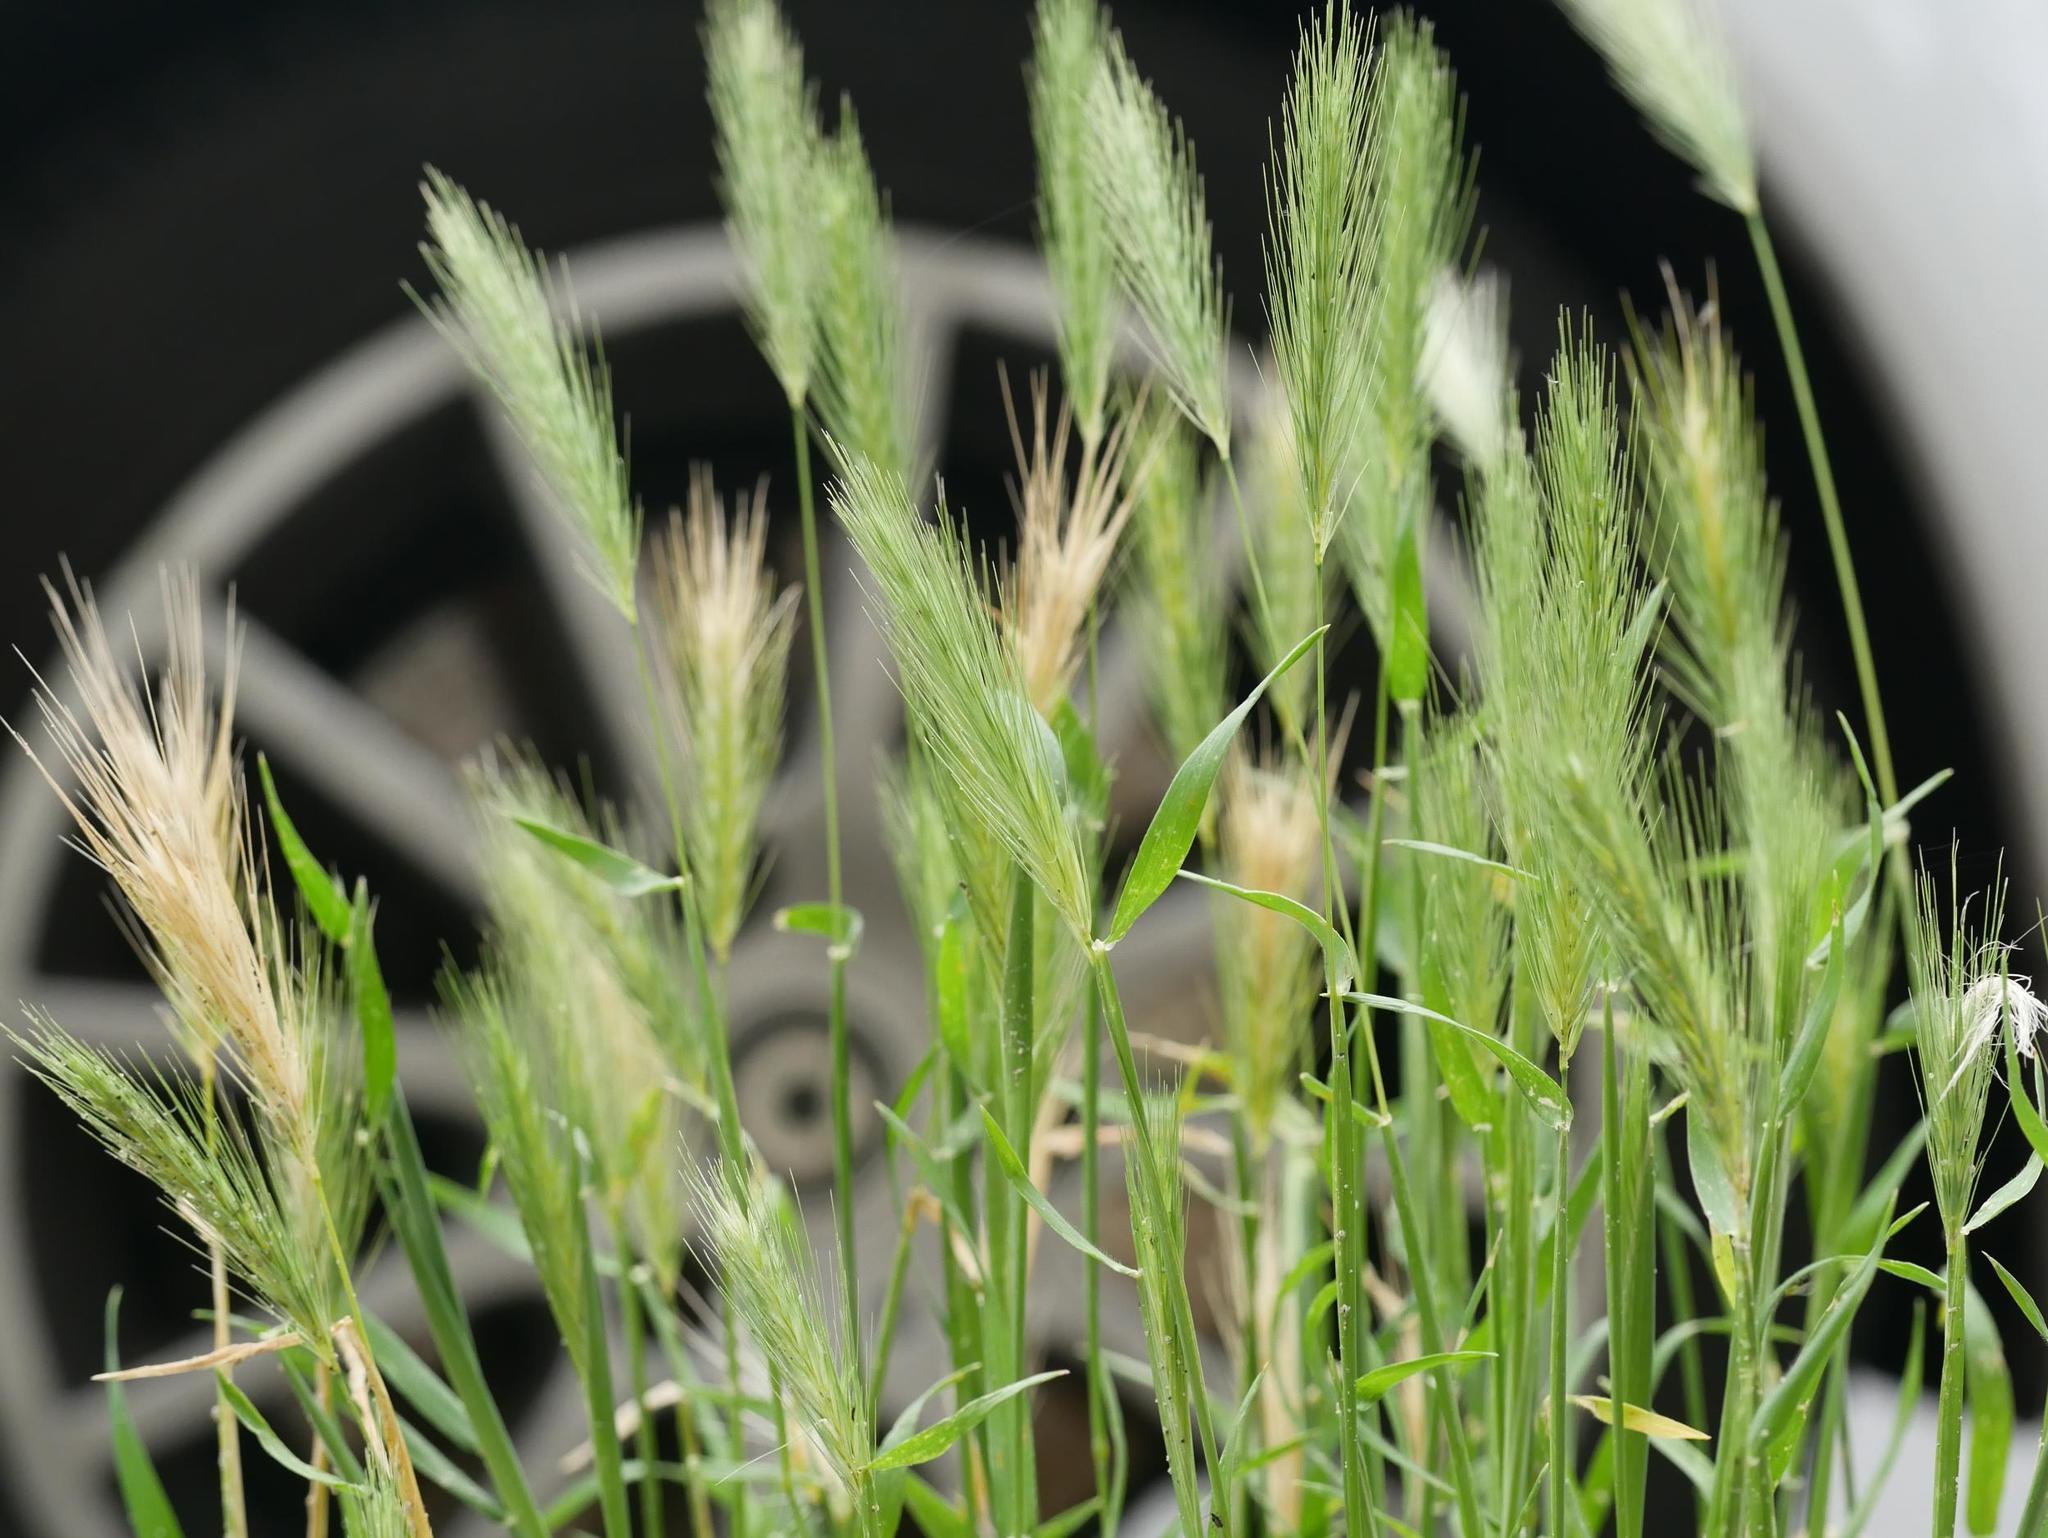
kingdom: Plantae
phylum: Tracheophyta
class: Liliopsida
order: Poales
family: Poaceae
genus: Hordeum
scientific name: Hordeum murinum
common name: Wall barley
